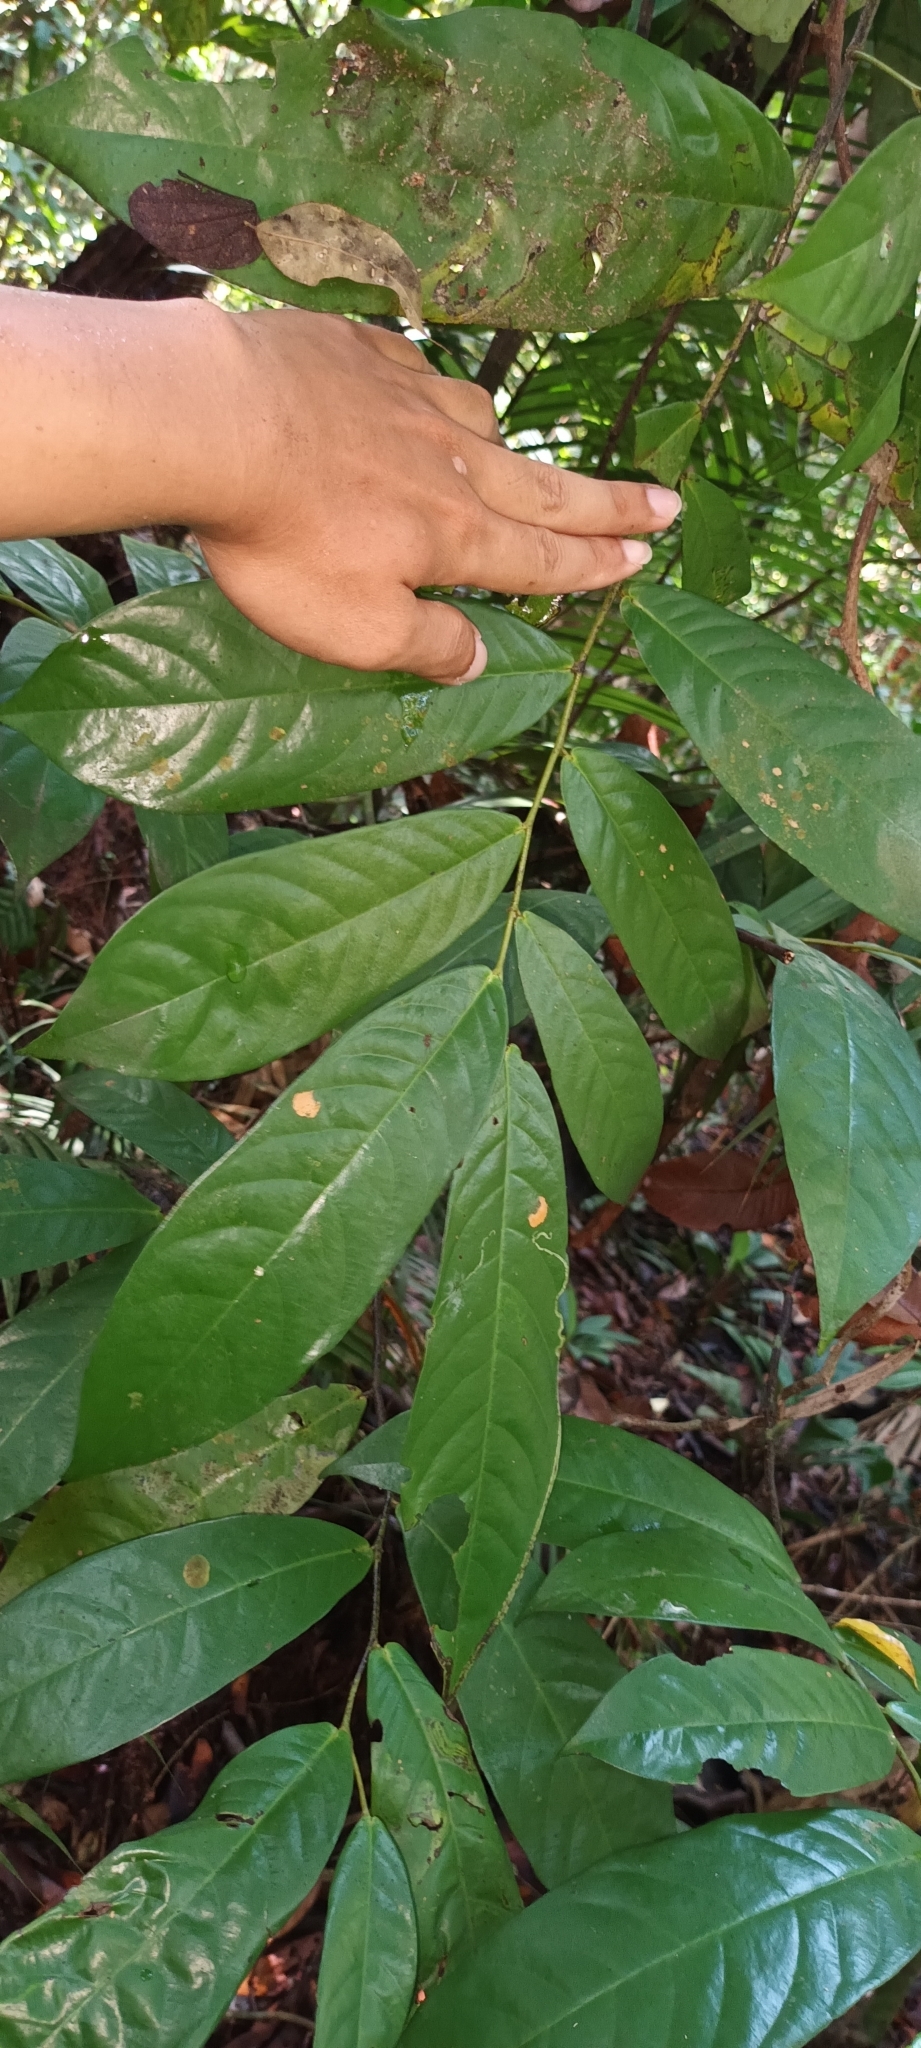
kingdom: Plantae
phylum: Tracheophyta
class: Magnoliopsida
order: Magnoliales
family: Annonaceae
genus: Dasymaschalon
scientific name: Dasymaschalon dasymaschalum
